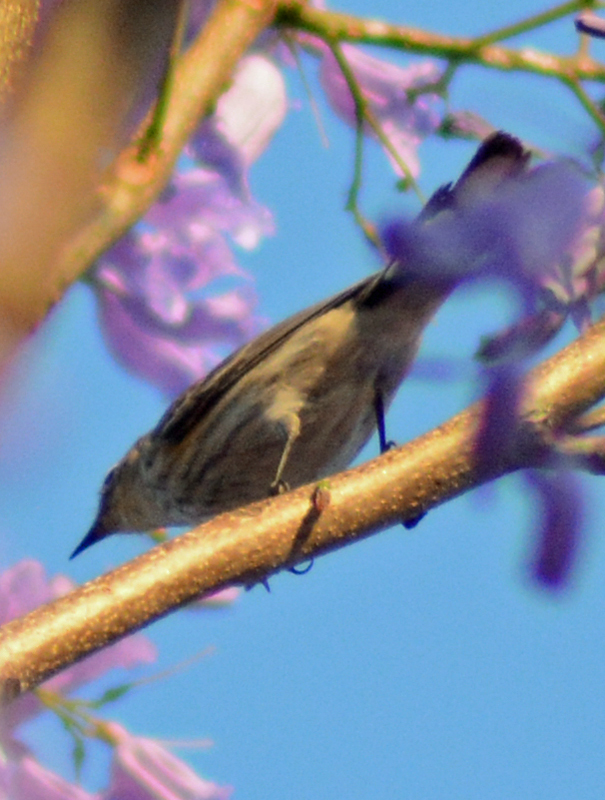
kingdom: Animalia
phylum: Chordata
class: Aves
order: Passeriformes
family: Parulidae
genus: Setophaga
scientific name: Setophaga coronata
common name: Myrtle warbler
